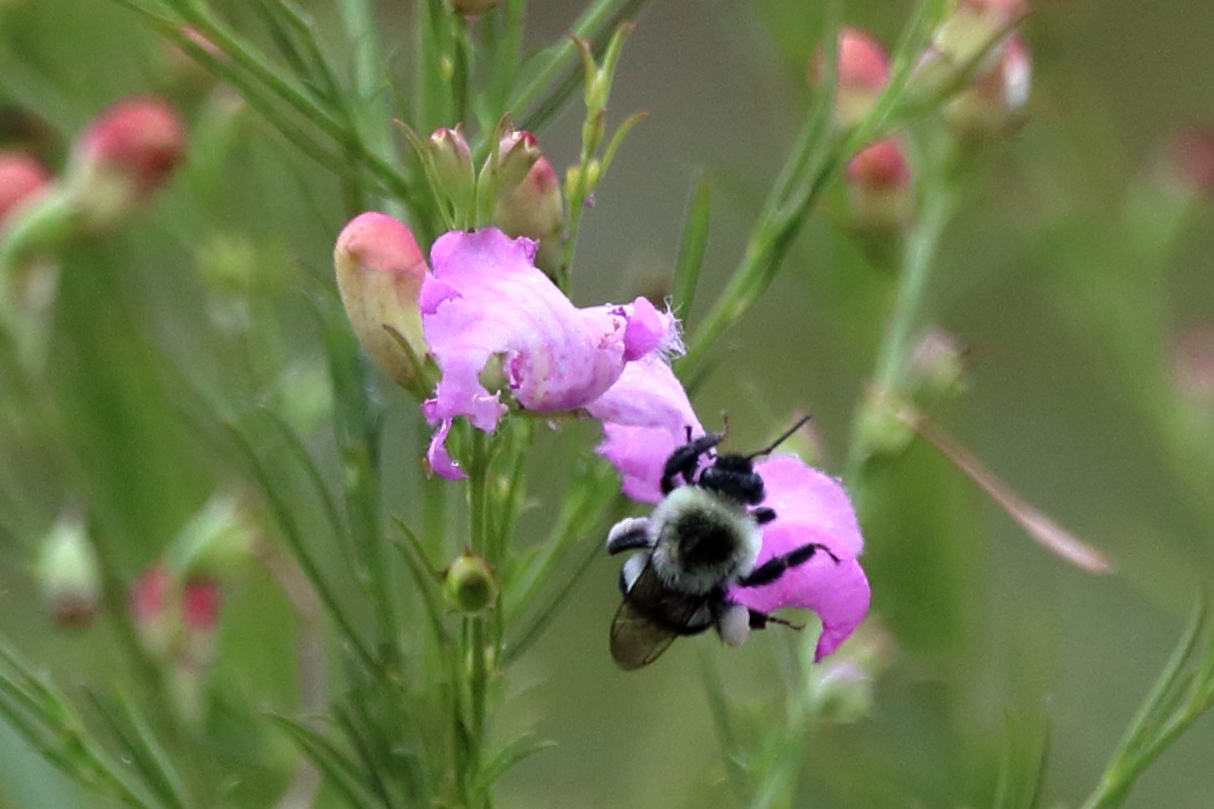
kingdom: Animalia
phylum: Arthropoda
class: Insecta
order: Hymenoptera
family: Apidae
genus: Bombus
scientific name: Bombus impatiens
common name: Common eastern bumble bee
